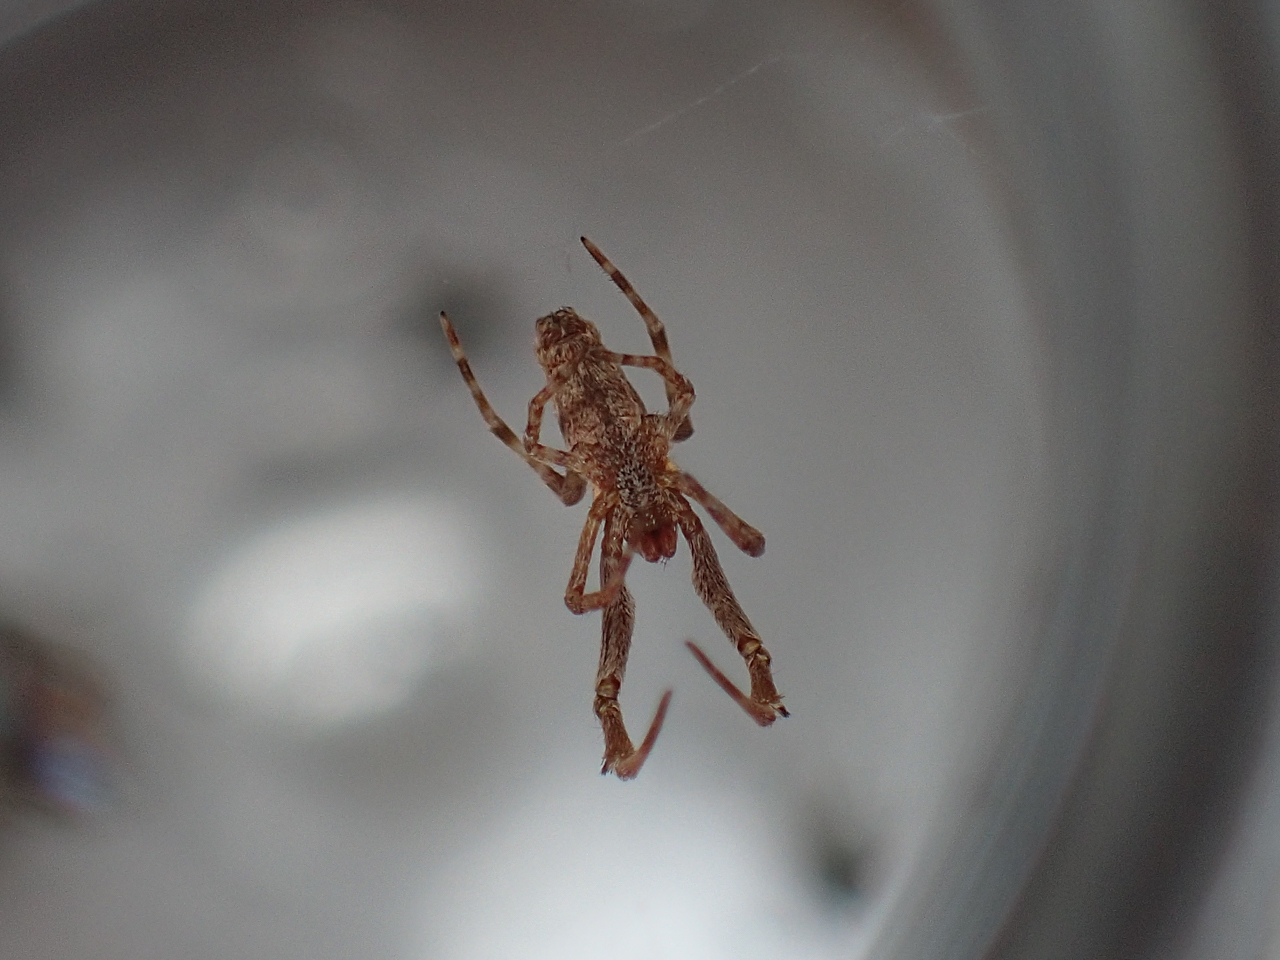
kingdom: Animalia
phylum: Arthropoda
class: Arachnida
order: Araneae
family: Uloboridae
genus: Uloborus
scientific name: Uloborus glomosus
